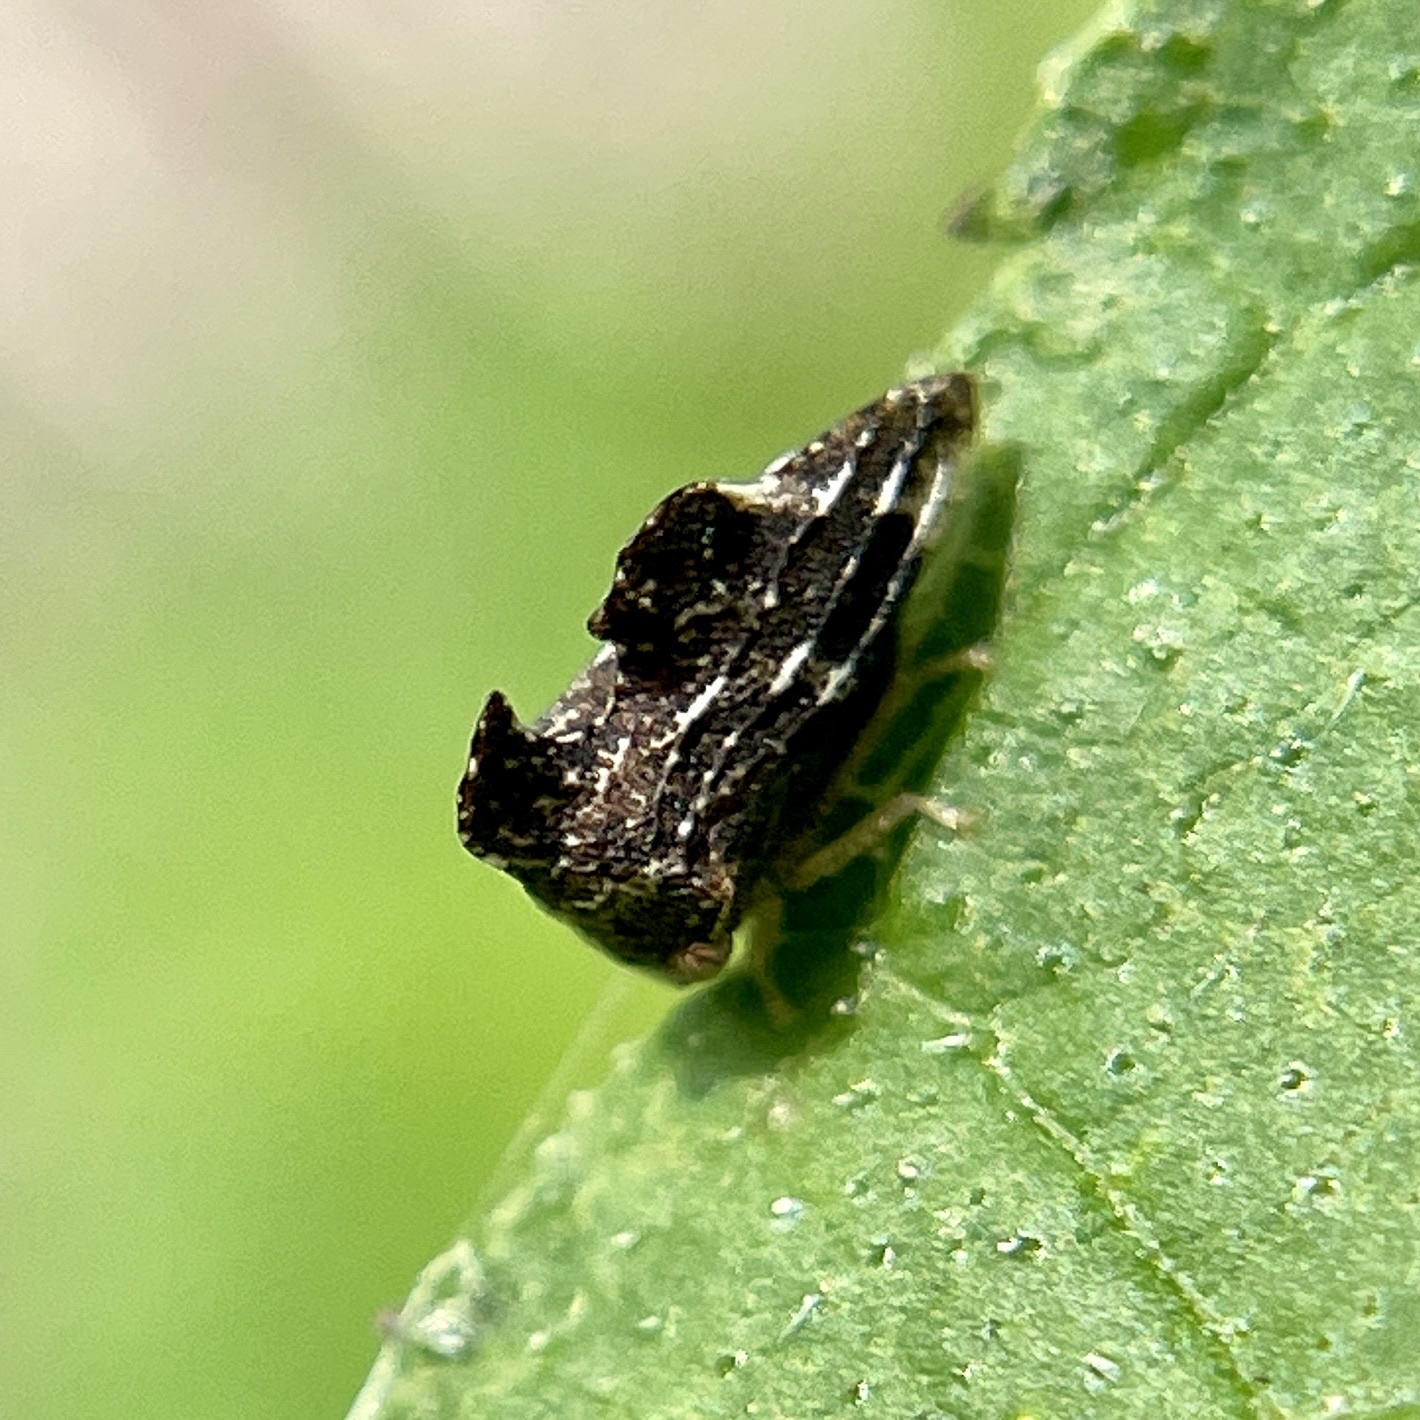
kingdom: Animalia
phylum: Arthropoda
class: Insecta
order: Hemiptera
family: Membracidae
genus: Entylia
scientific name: Entylia carinata
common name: Keeled treehopper
